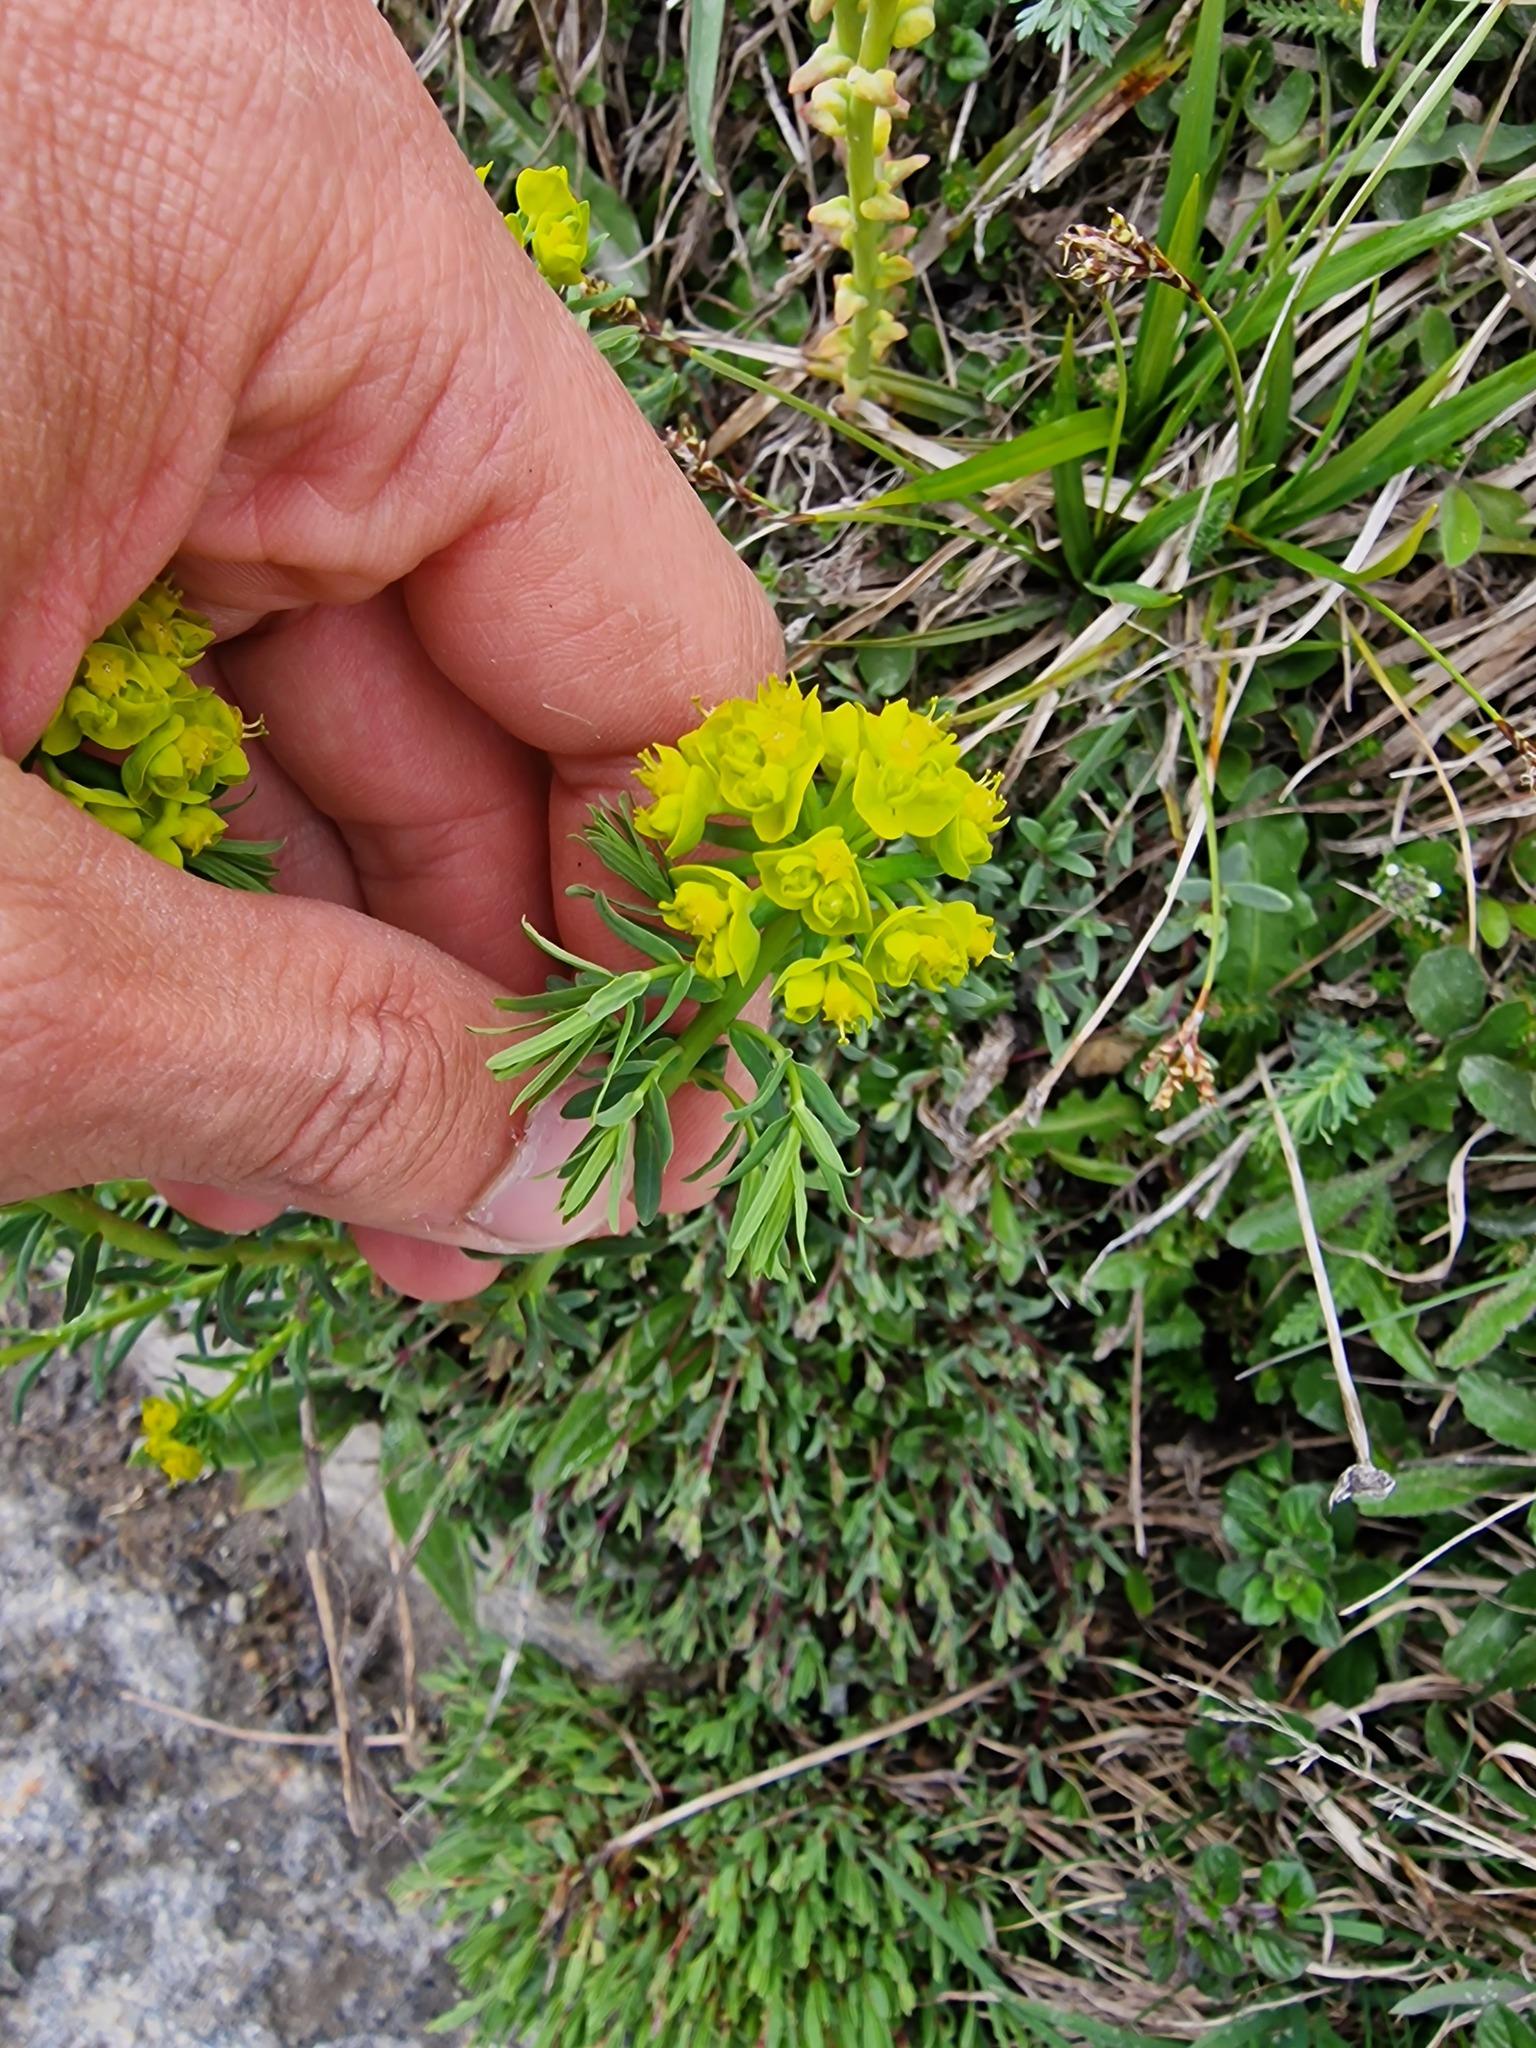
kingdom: Plantae
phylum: Tracheophyta
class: Magnoliopsida
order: Malpighiales
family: Euphorbiaceae
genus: Euphorbia
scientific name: Euphorbia cyparissias
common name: Cypress spurge
